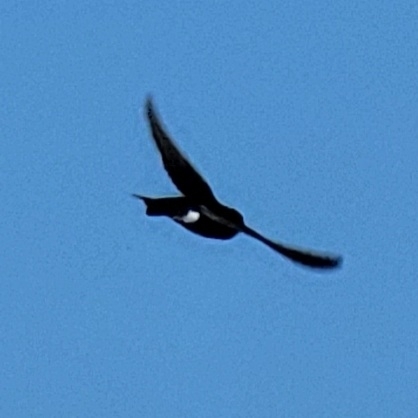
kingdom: Animalia
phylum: Chordata
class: Aves
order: Passeriformes
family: Hirundinidae
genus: Tachycineta
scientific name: Tachycineta bicolor
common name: Tree swallow
